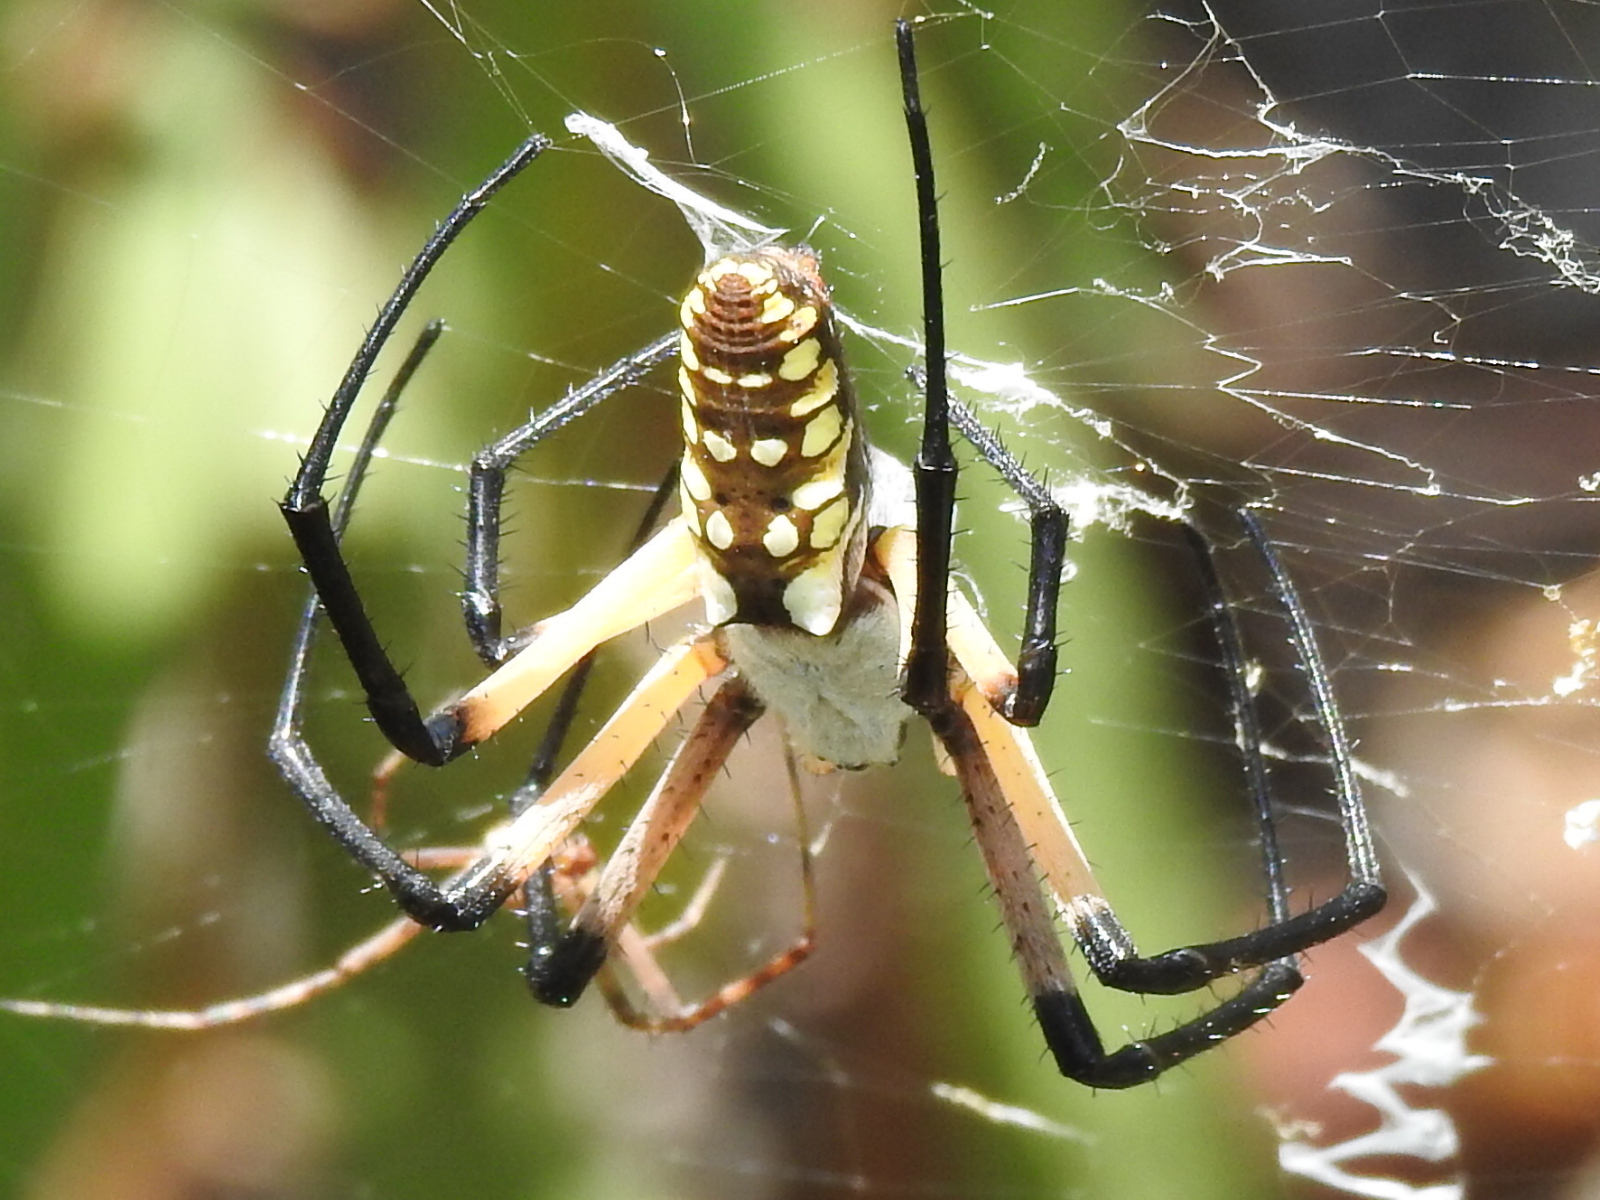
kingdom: Animalia
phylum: Arthropoda
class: Arachnida
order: Araneae
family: Araneidae
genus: Argiope
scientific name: Argiope aurantia
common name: Orb weavers
